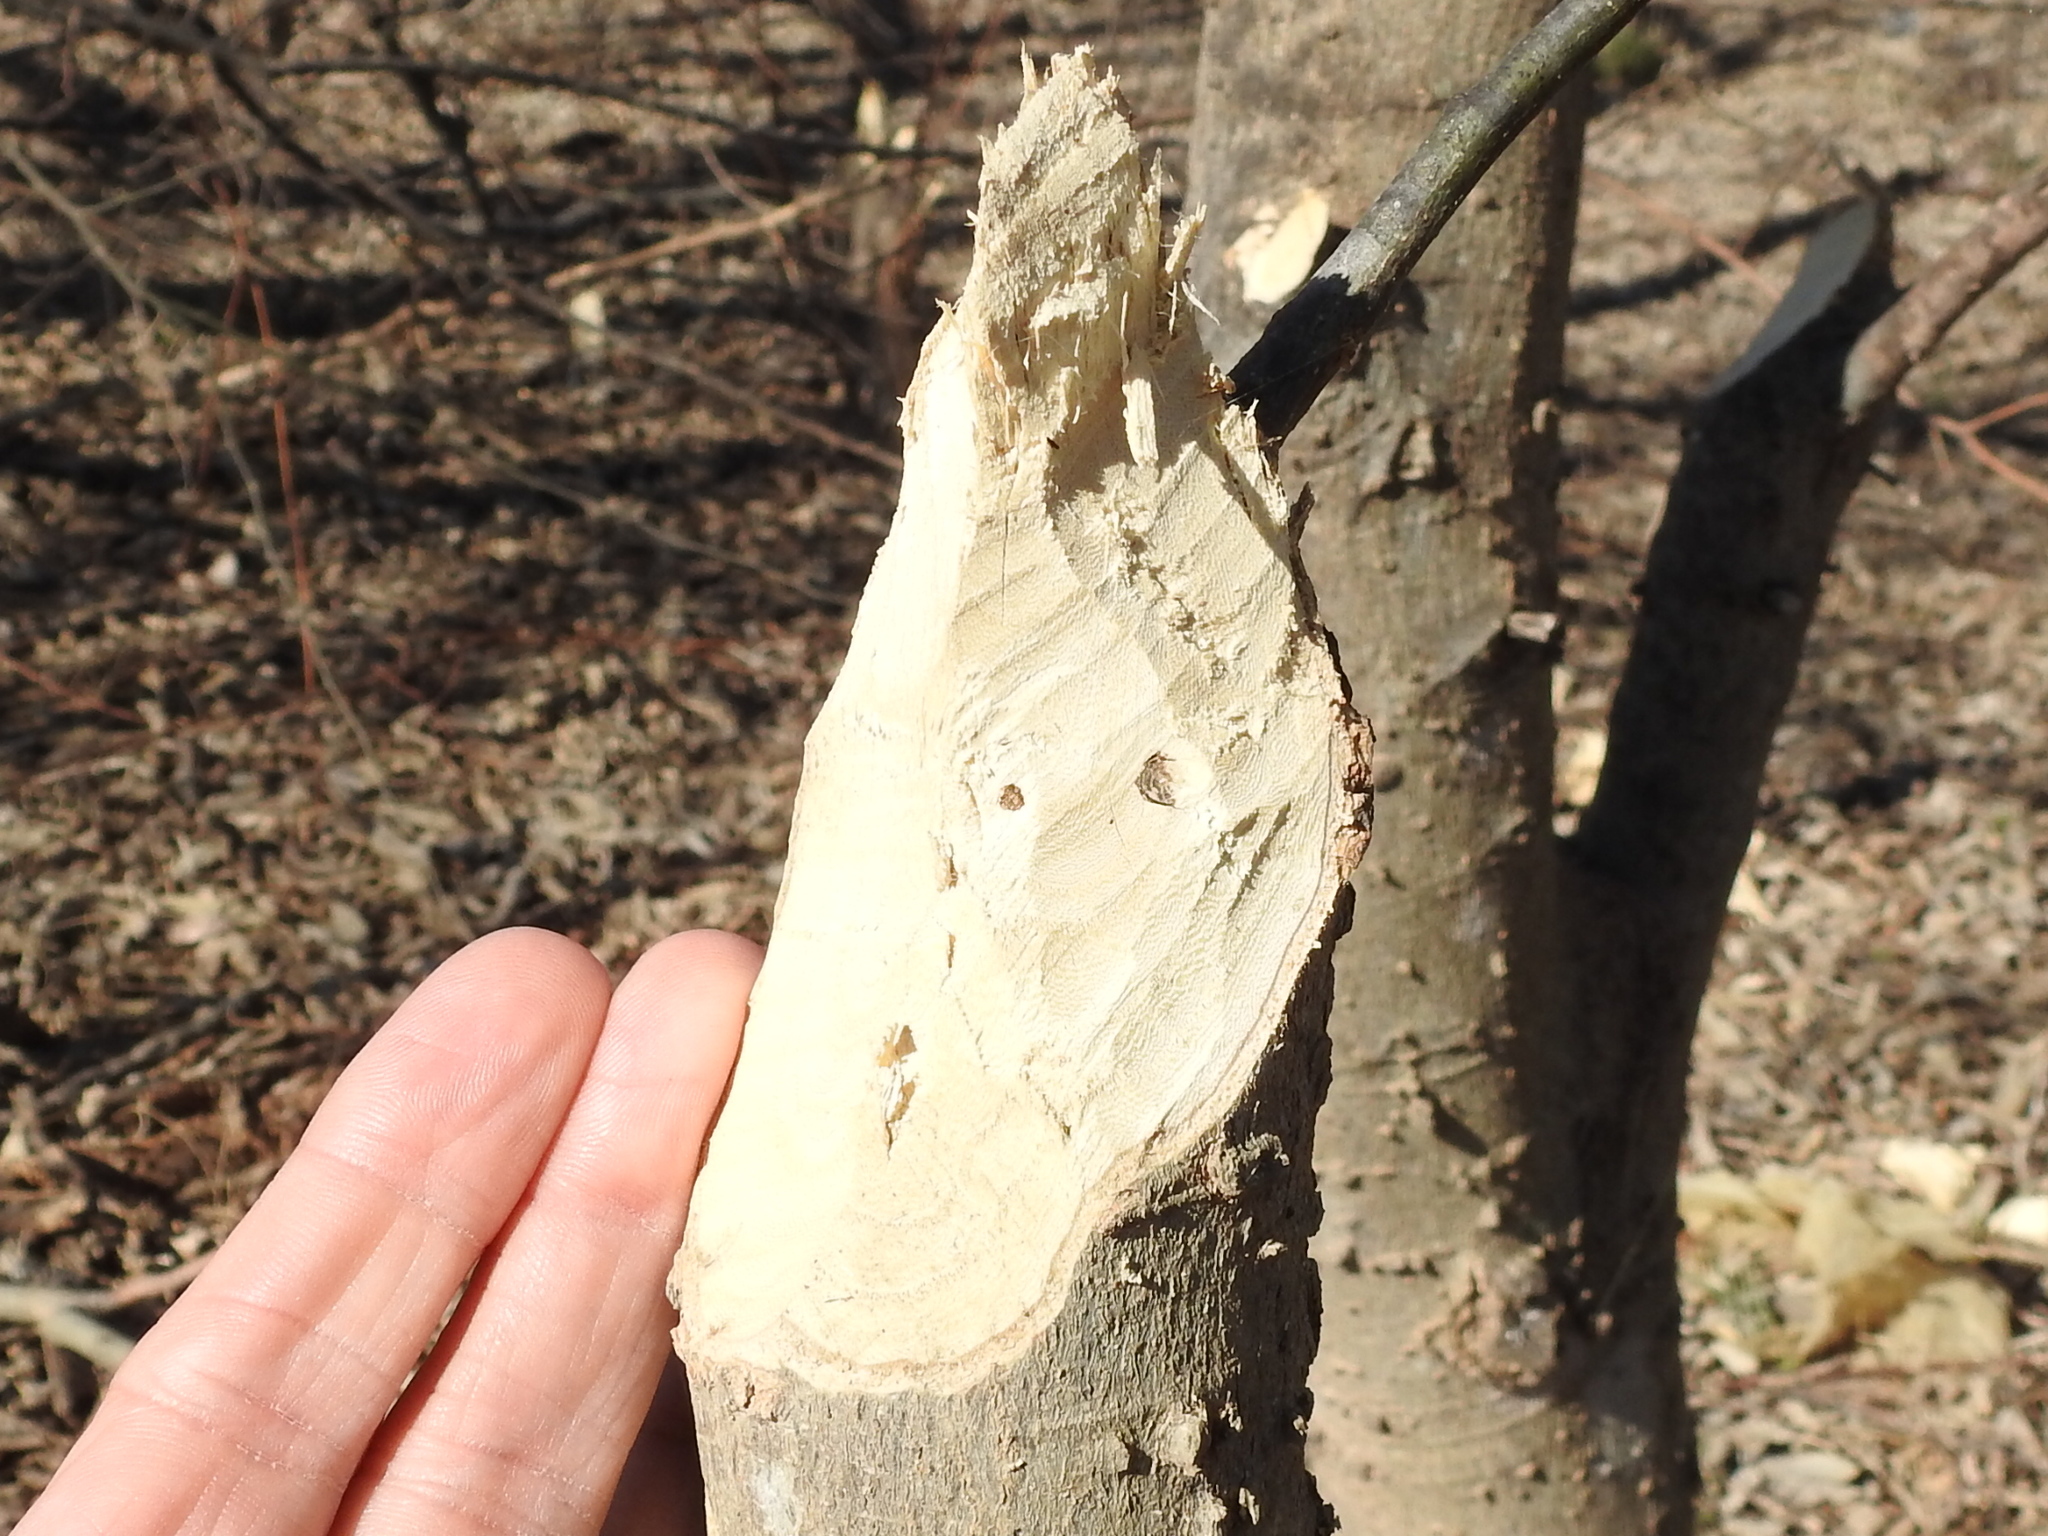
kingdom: Animalia
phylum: Chordata
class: Mammalia
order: Rodentia
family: Castoridae
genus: Castor
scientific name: Castor canadensis
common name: American beaver
